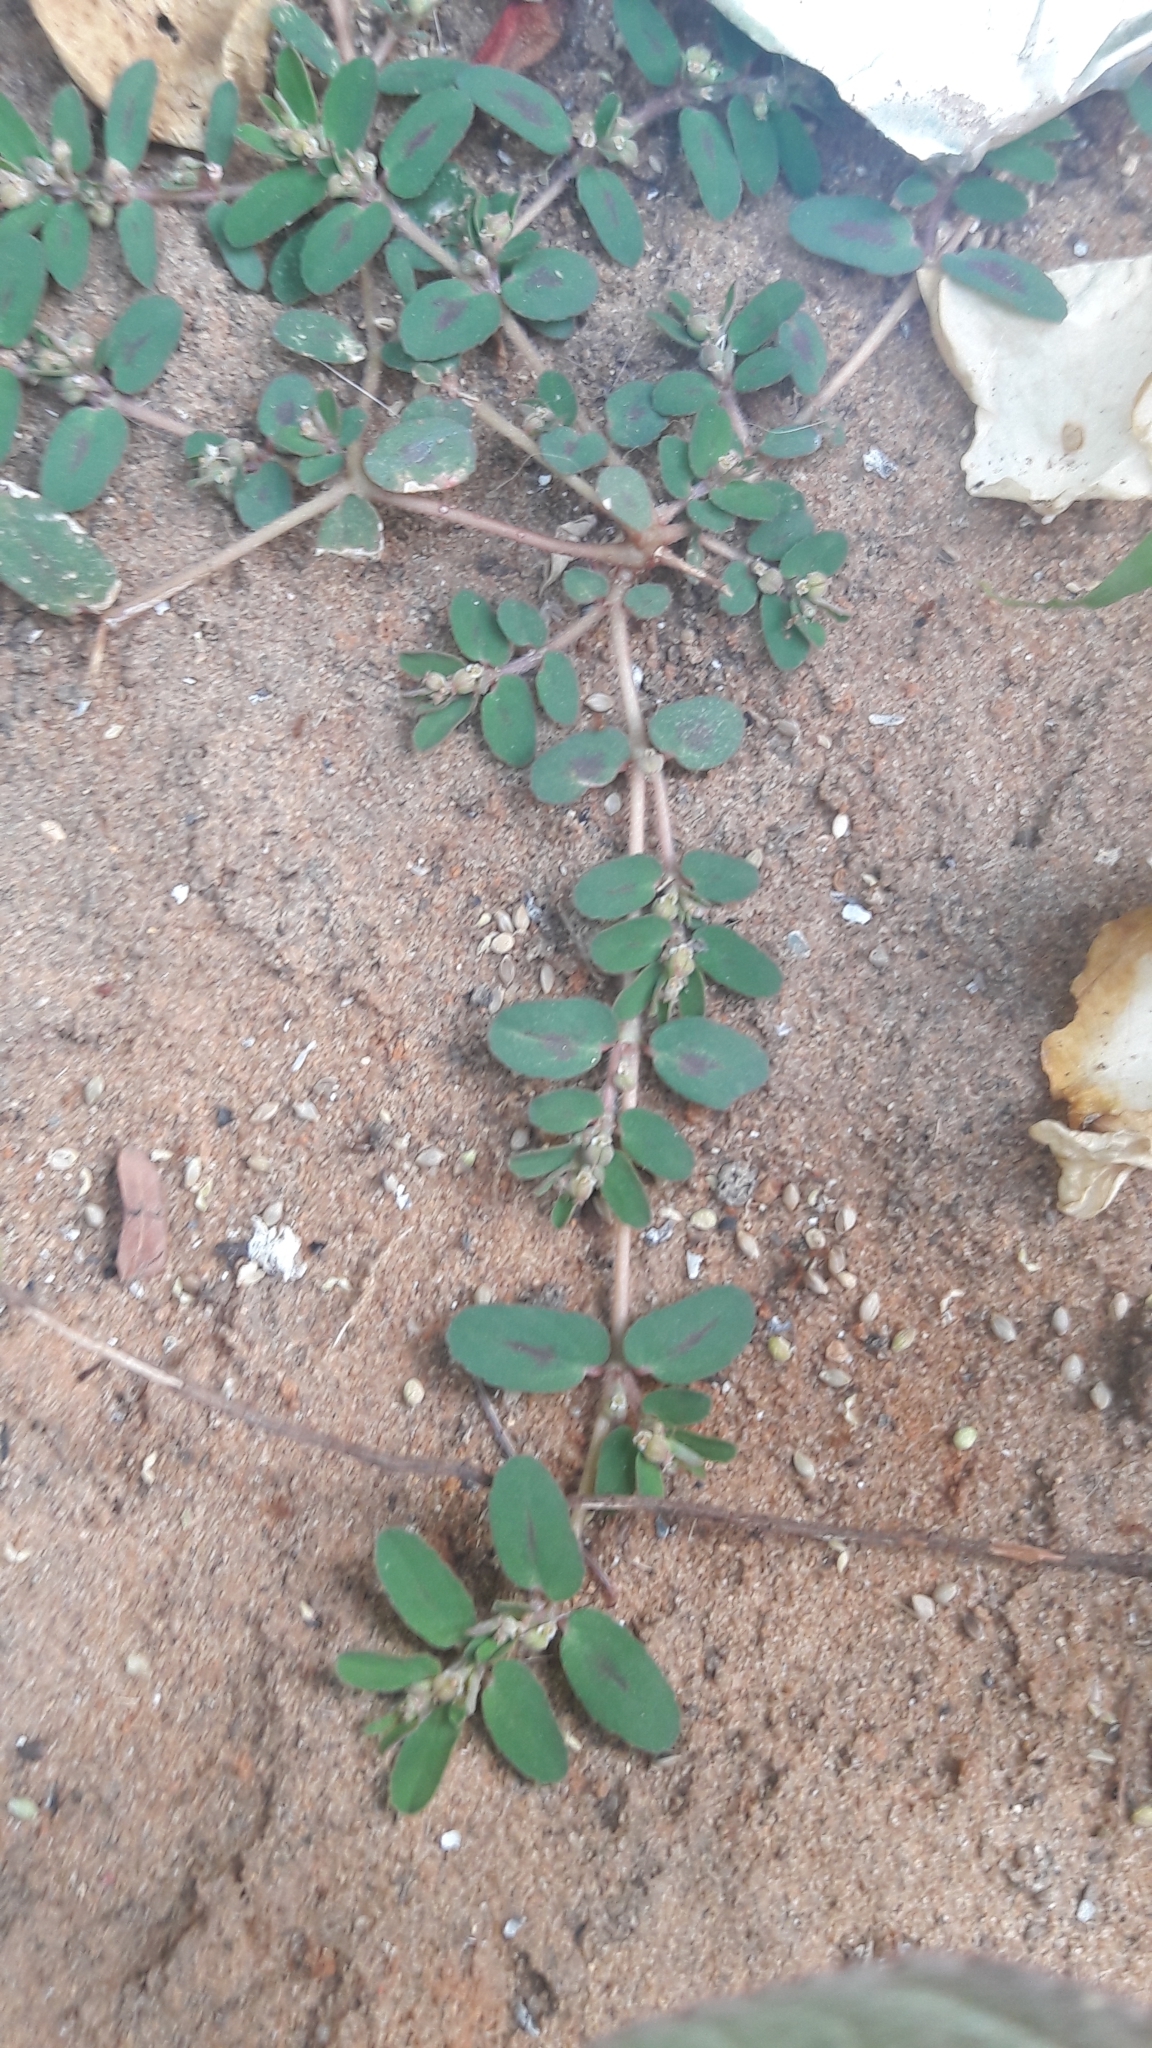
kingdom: Plantae
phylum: Tracheophyta
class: Magnoliopsida
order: Malpighiales
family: Euphorbiaceae
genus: Euphorbia
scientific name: Euphorbia maculata
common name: Spotted spurge
